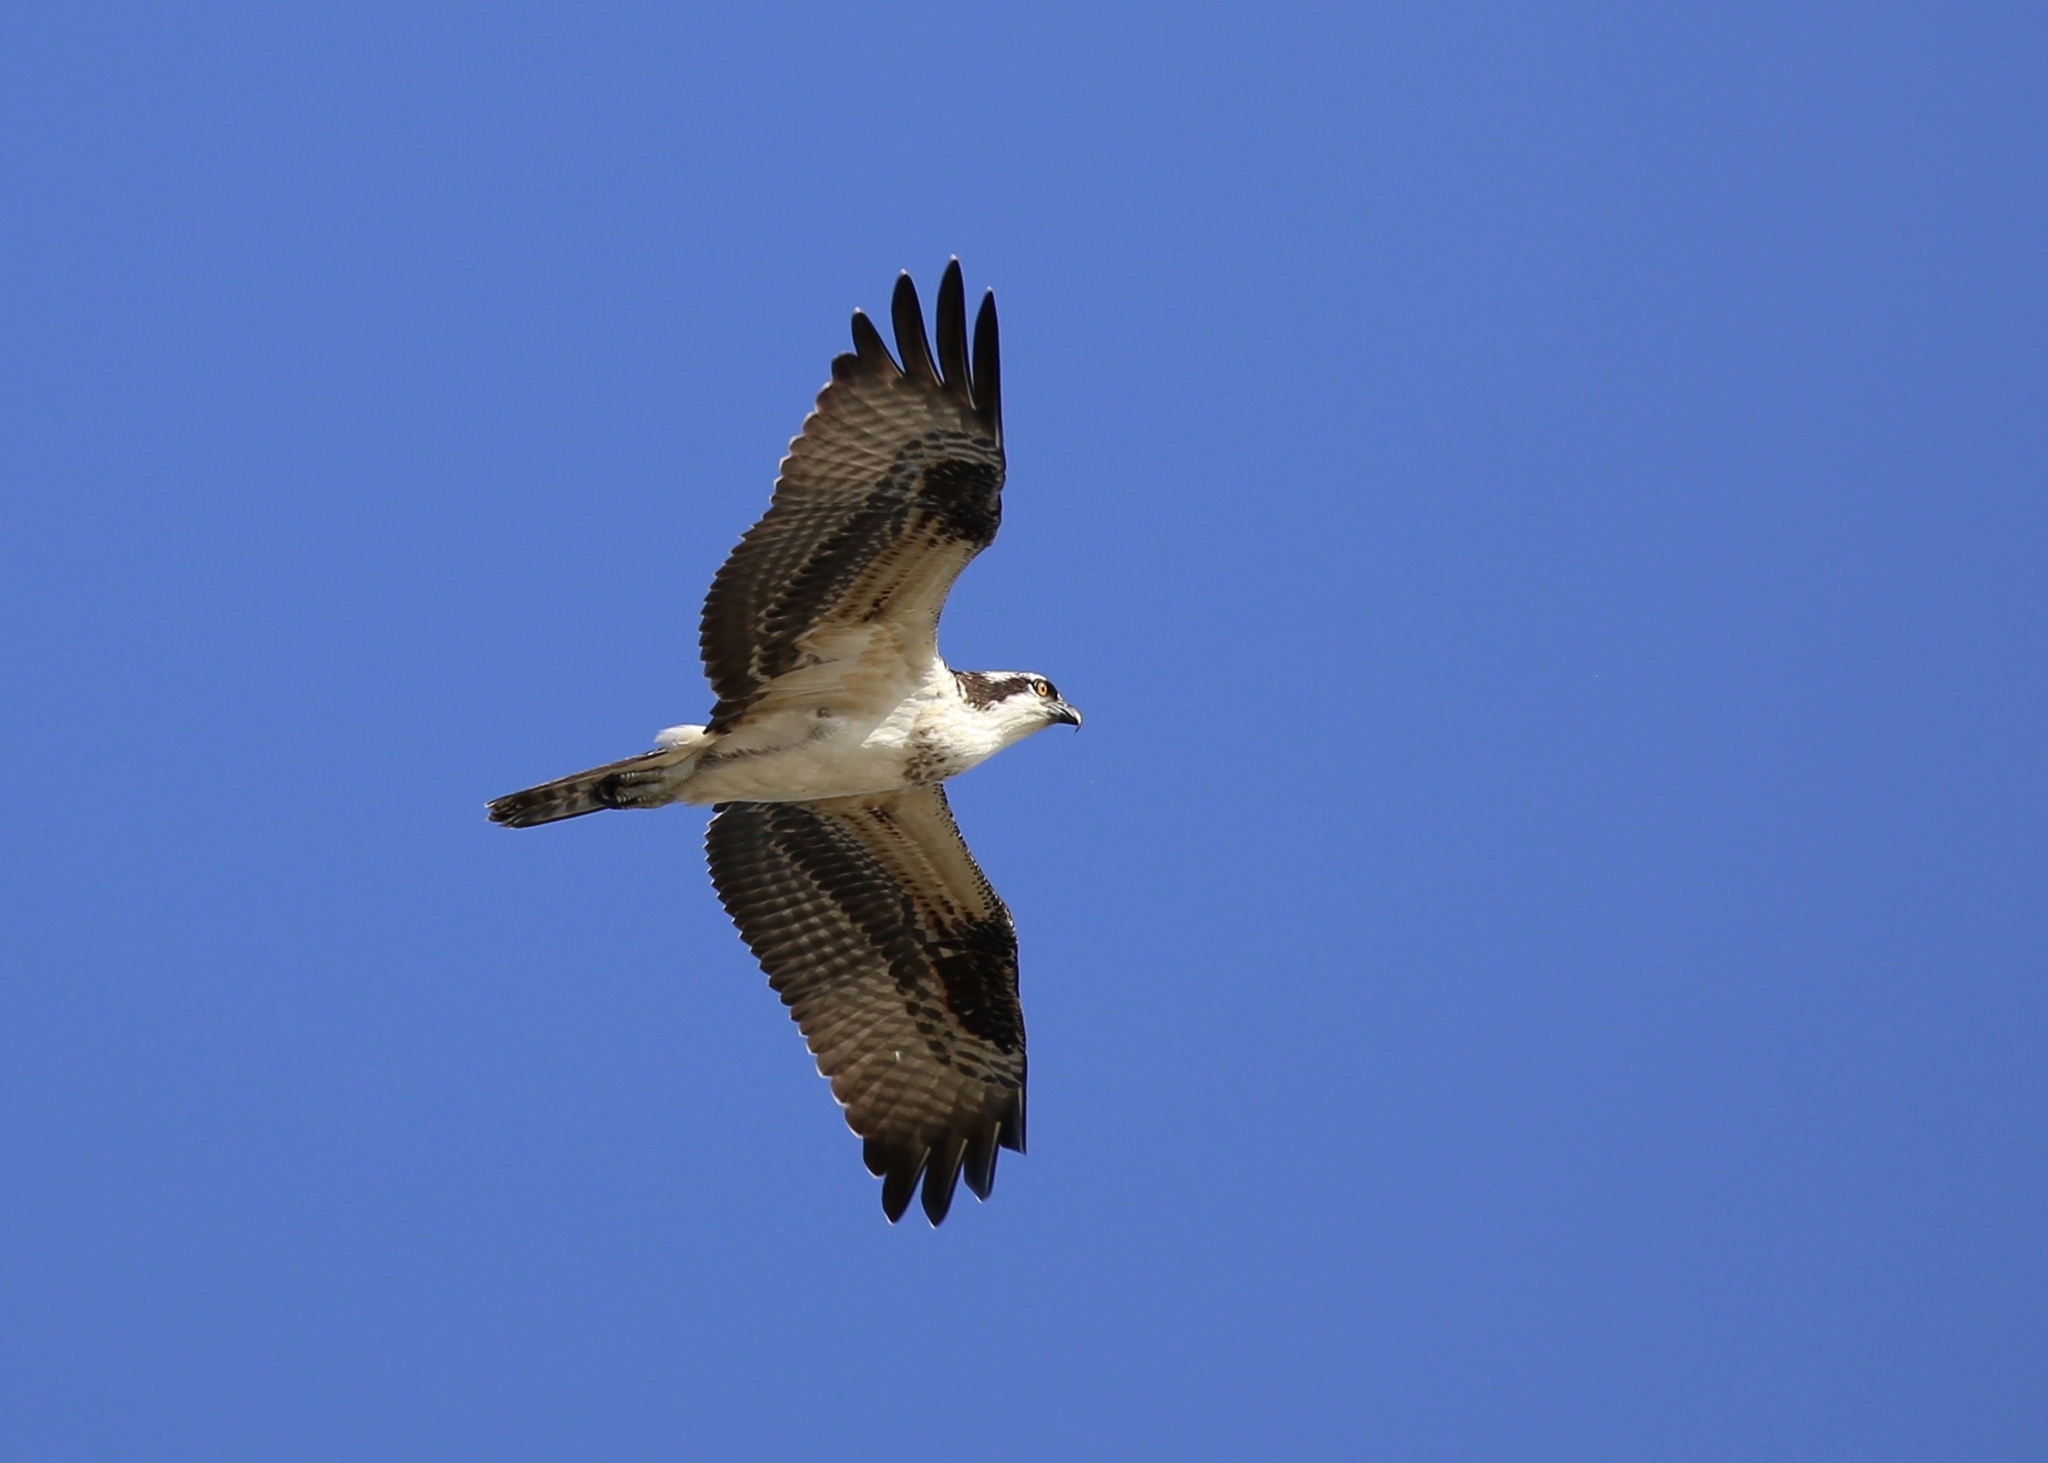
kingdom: Animalia
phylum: Chordata
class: Aves
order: Accipitriformes
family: Pandionidae
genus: Pandion
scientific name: Pandion haliaetus
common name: Osprey
